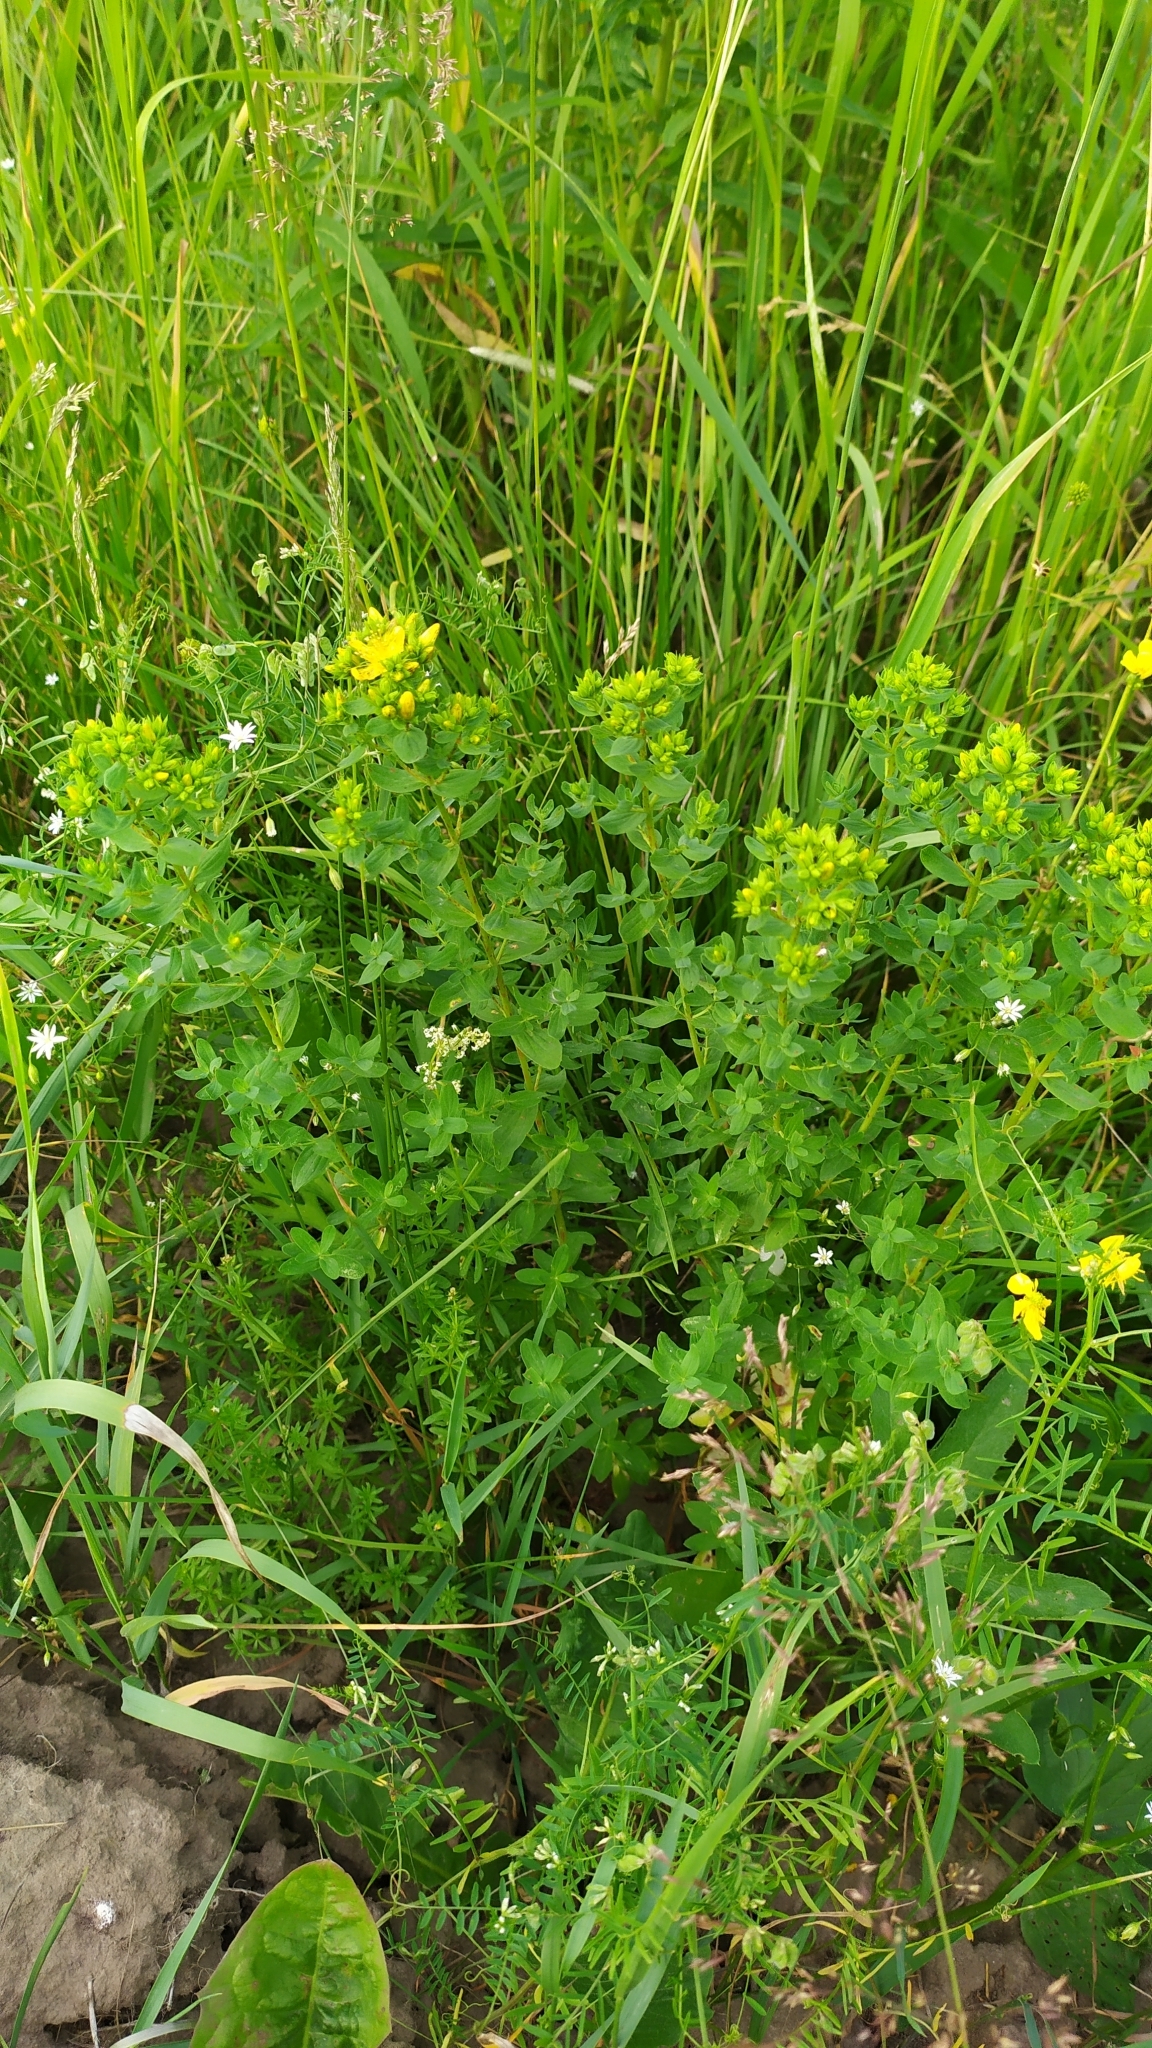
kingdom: Plantae
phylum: Tracheophyta
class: Magnoliopsida
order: Malpighiales
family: Hypericaceae
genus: Hypericum
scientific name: Hypericum perforatum
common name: Common st. johnswort
